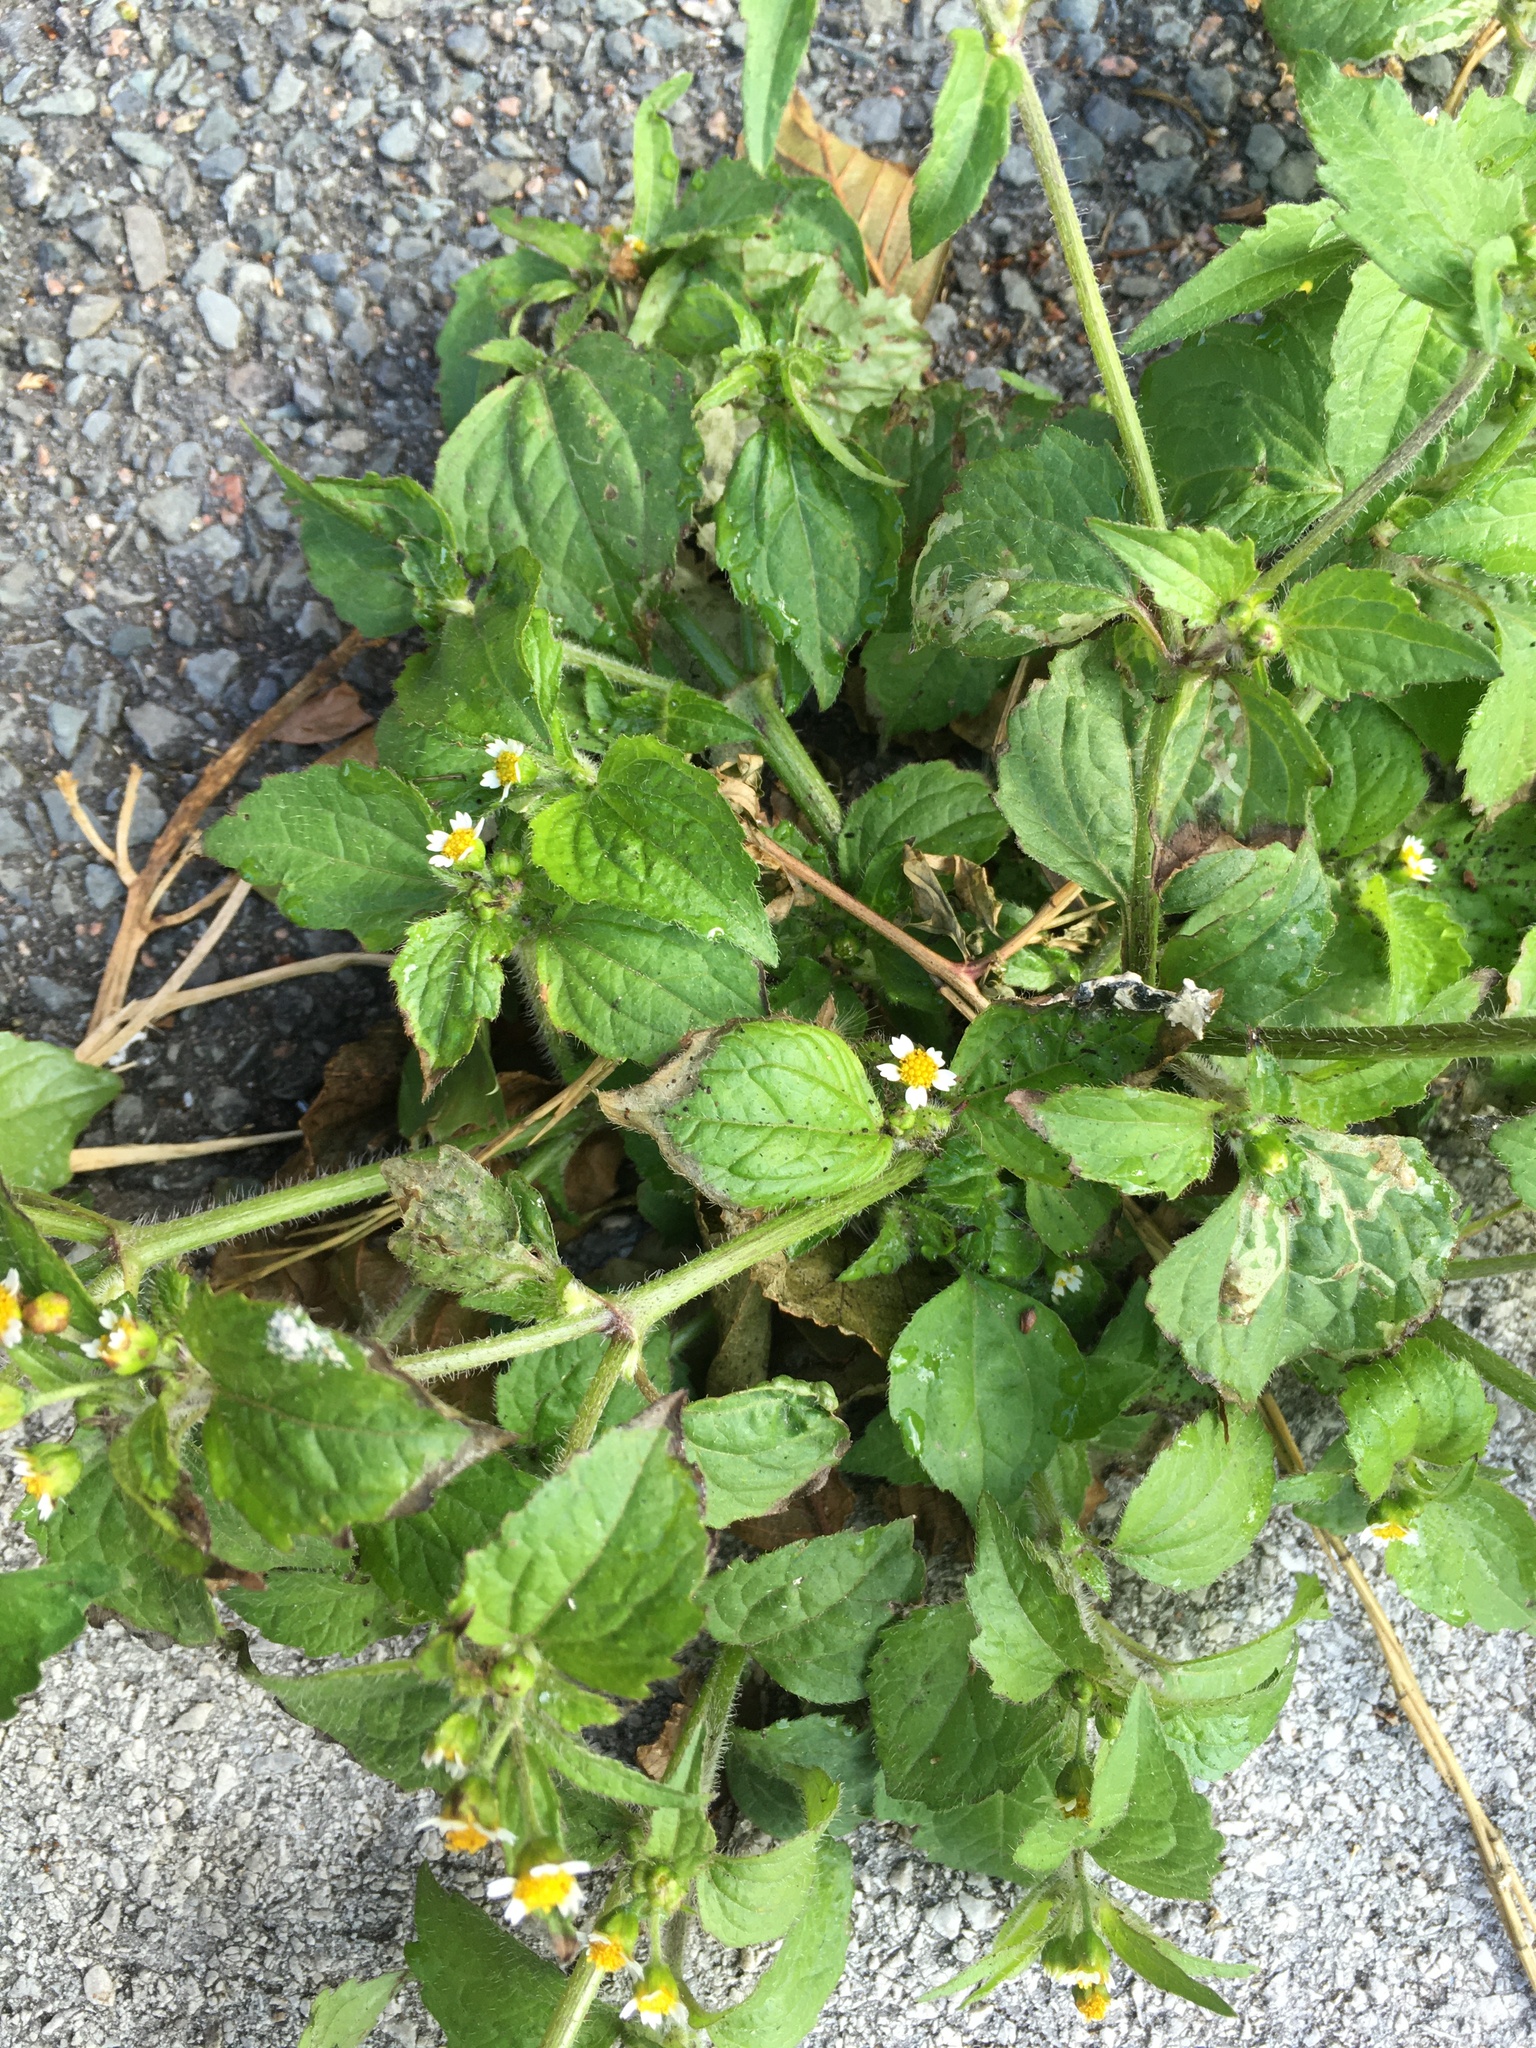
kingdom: Plantae
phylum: Tracheophyta
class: Magnoliopsida
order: Asterales
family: Asteraceae
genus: Galinsoga
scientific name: Galinsoga quadriradiata
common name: Shaggy soldier
